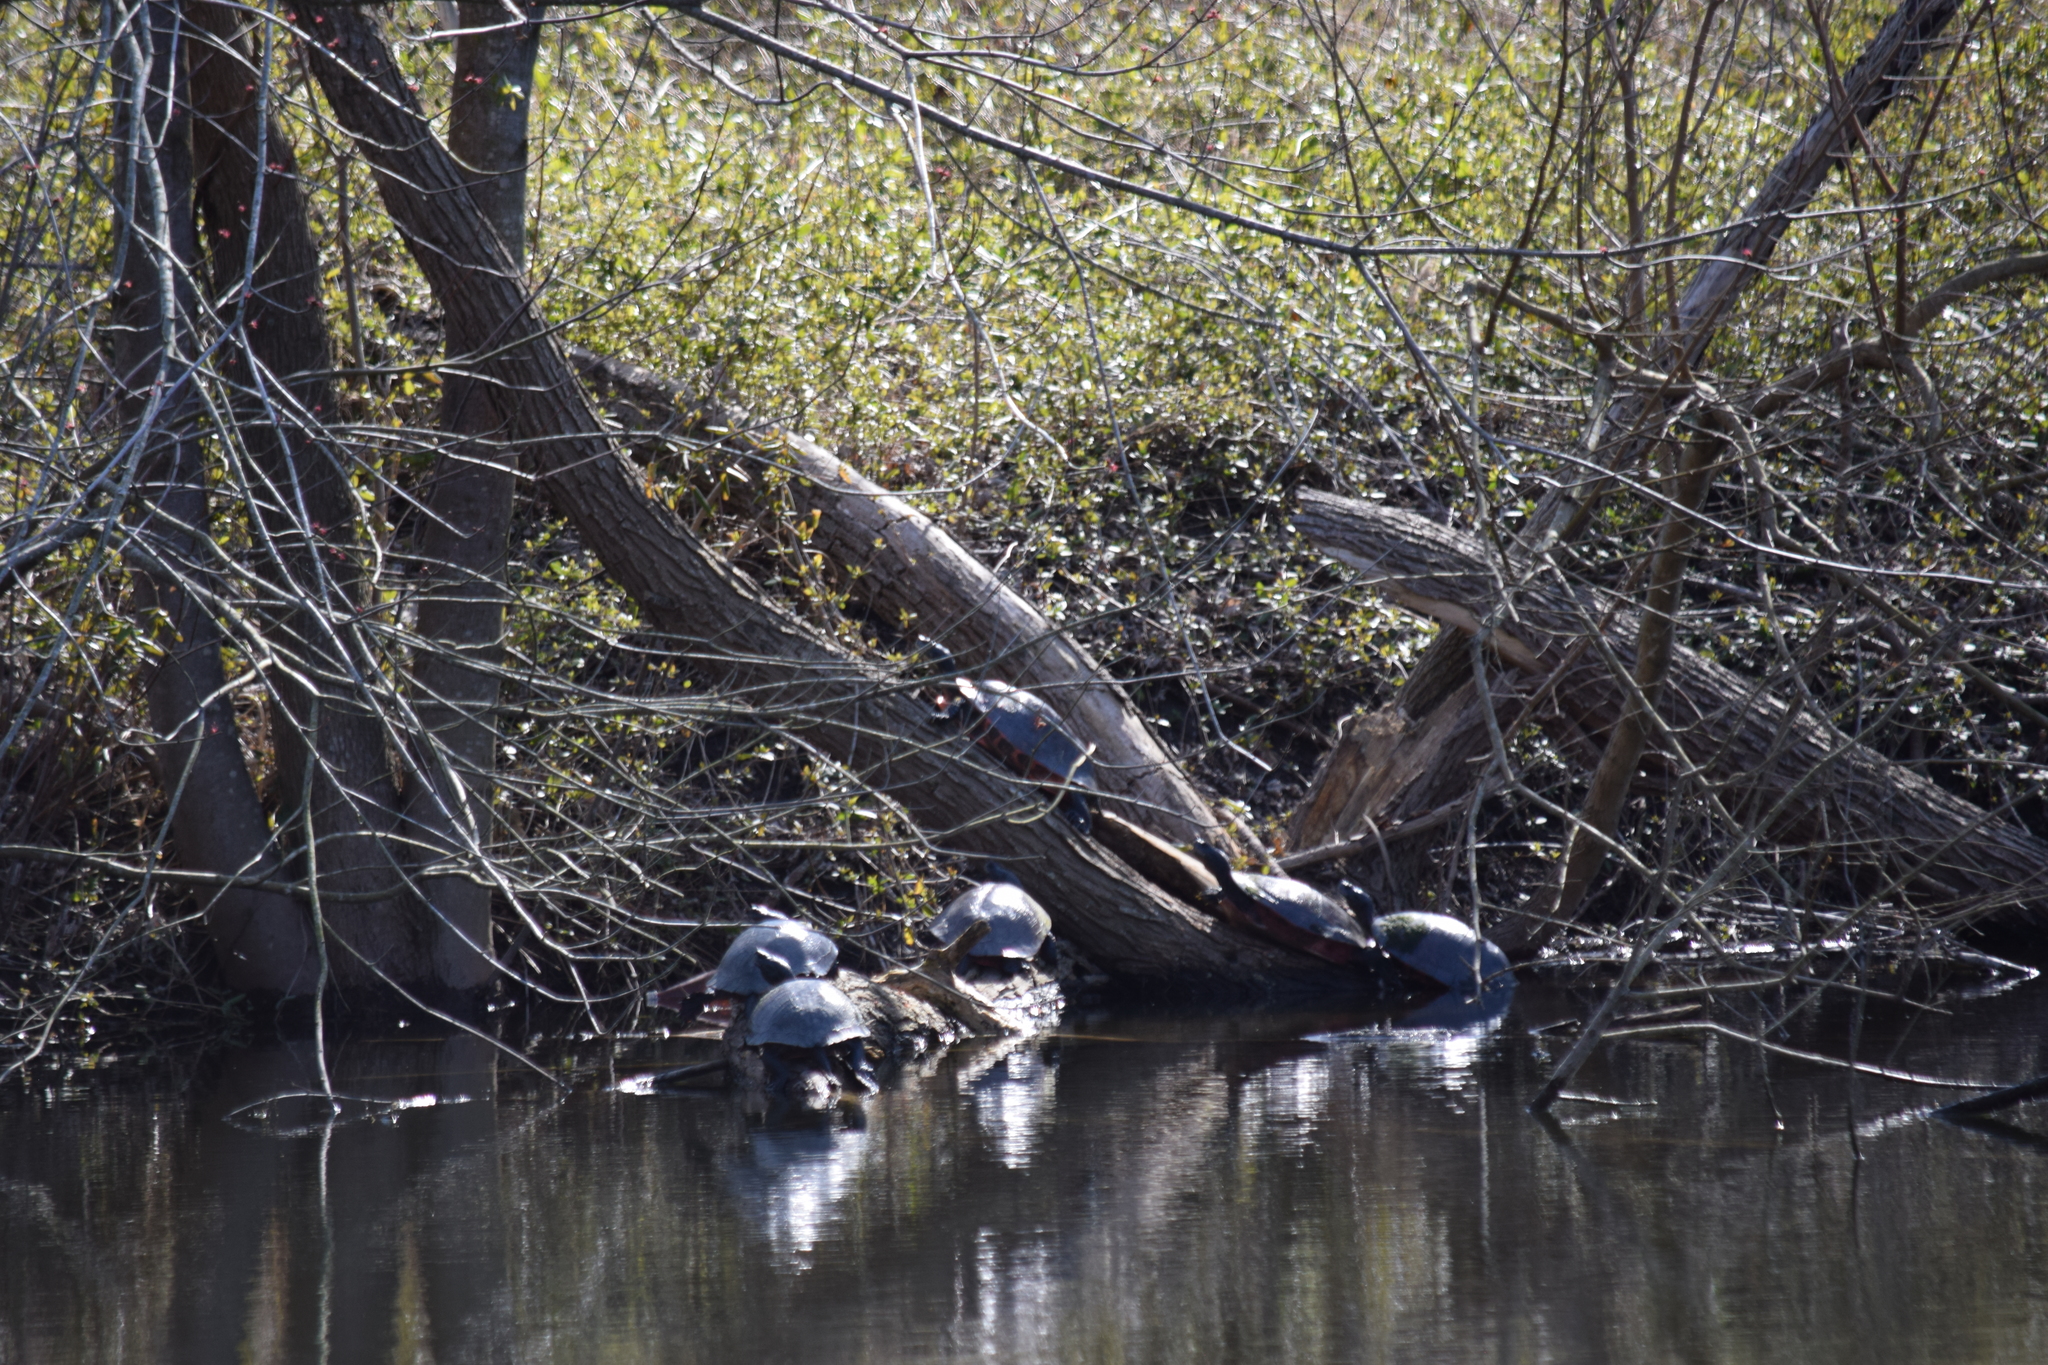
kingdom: Animalia
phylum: Chordata
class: Testudines
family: Emydidae
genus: Pseudemys
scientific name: Pseudemys rubriventris
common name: American red-bellied turtle
